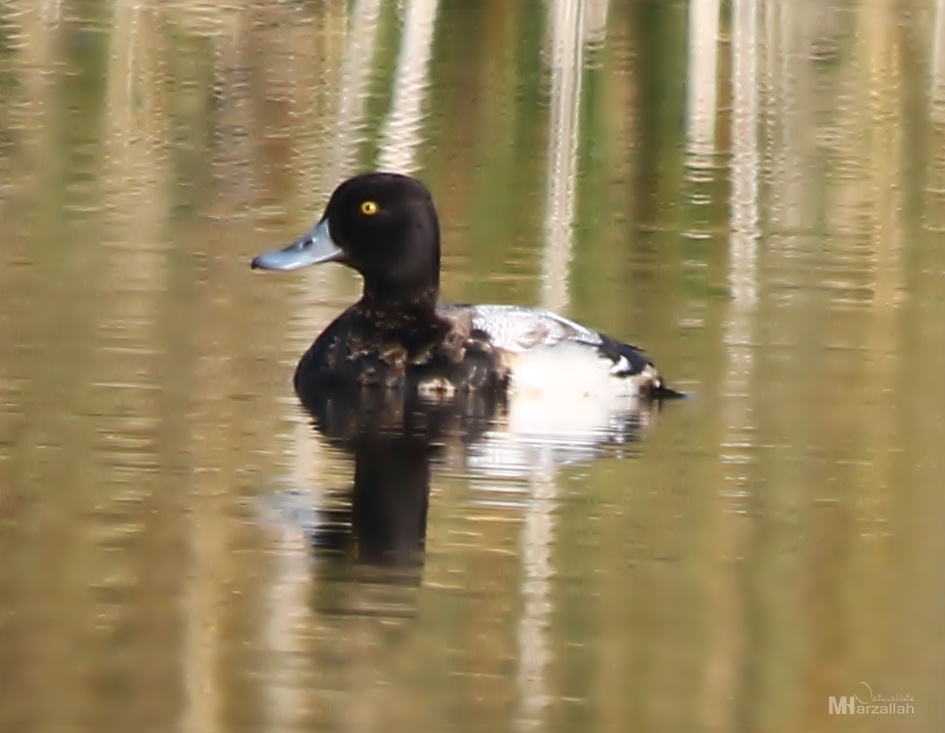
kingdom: Animalia
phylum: Chordata
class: Aves
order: Anseriformes
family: Anatidae
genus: Aythya
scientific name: Aythya affinis
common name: Lesser scaup
